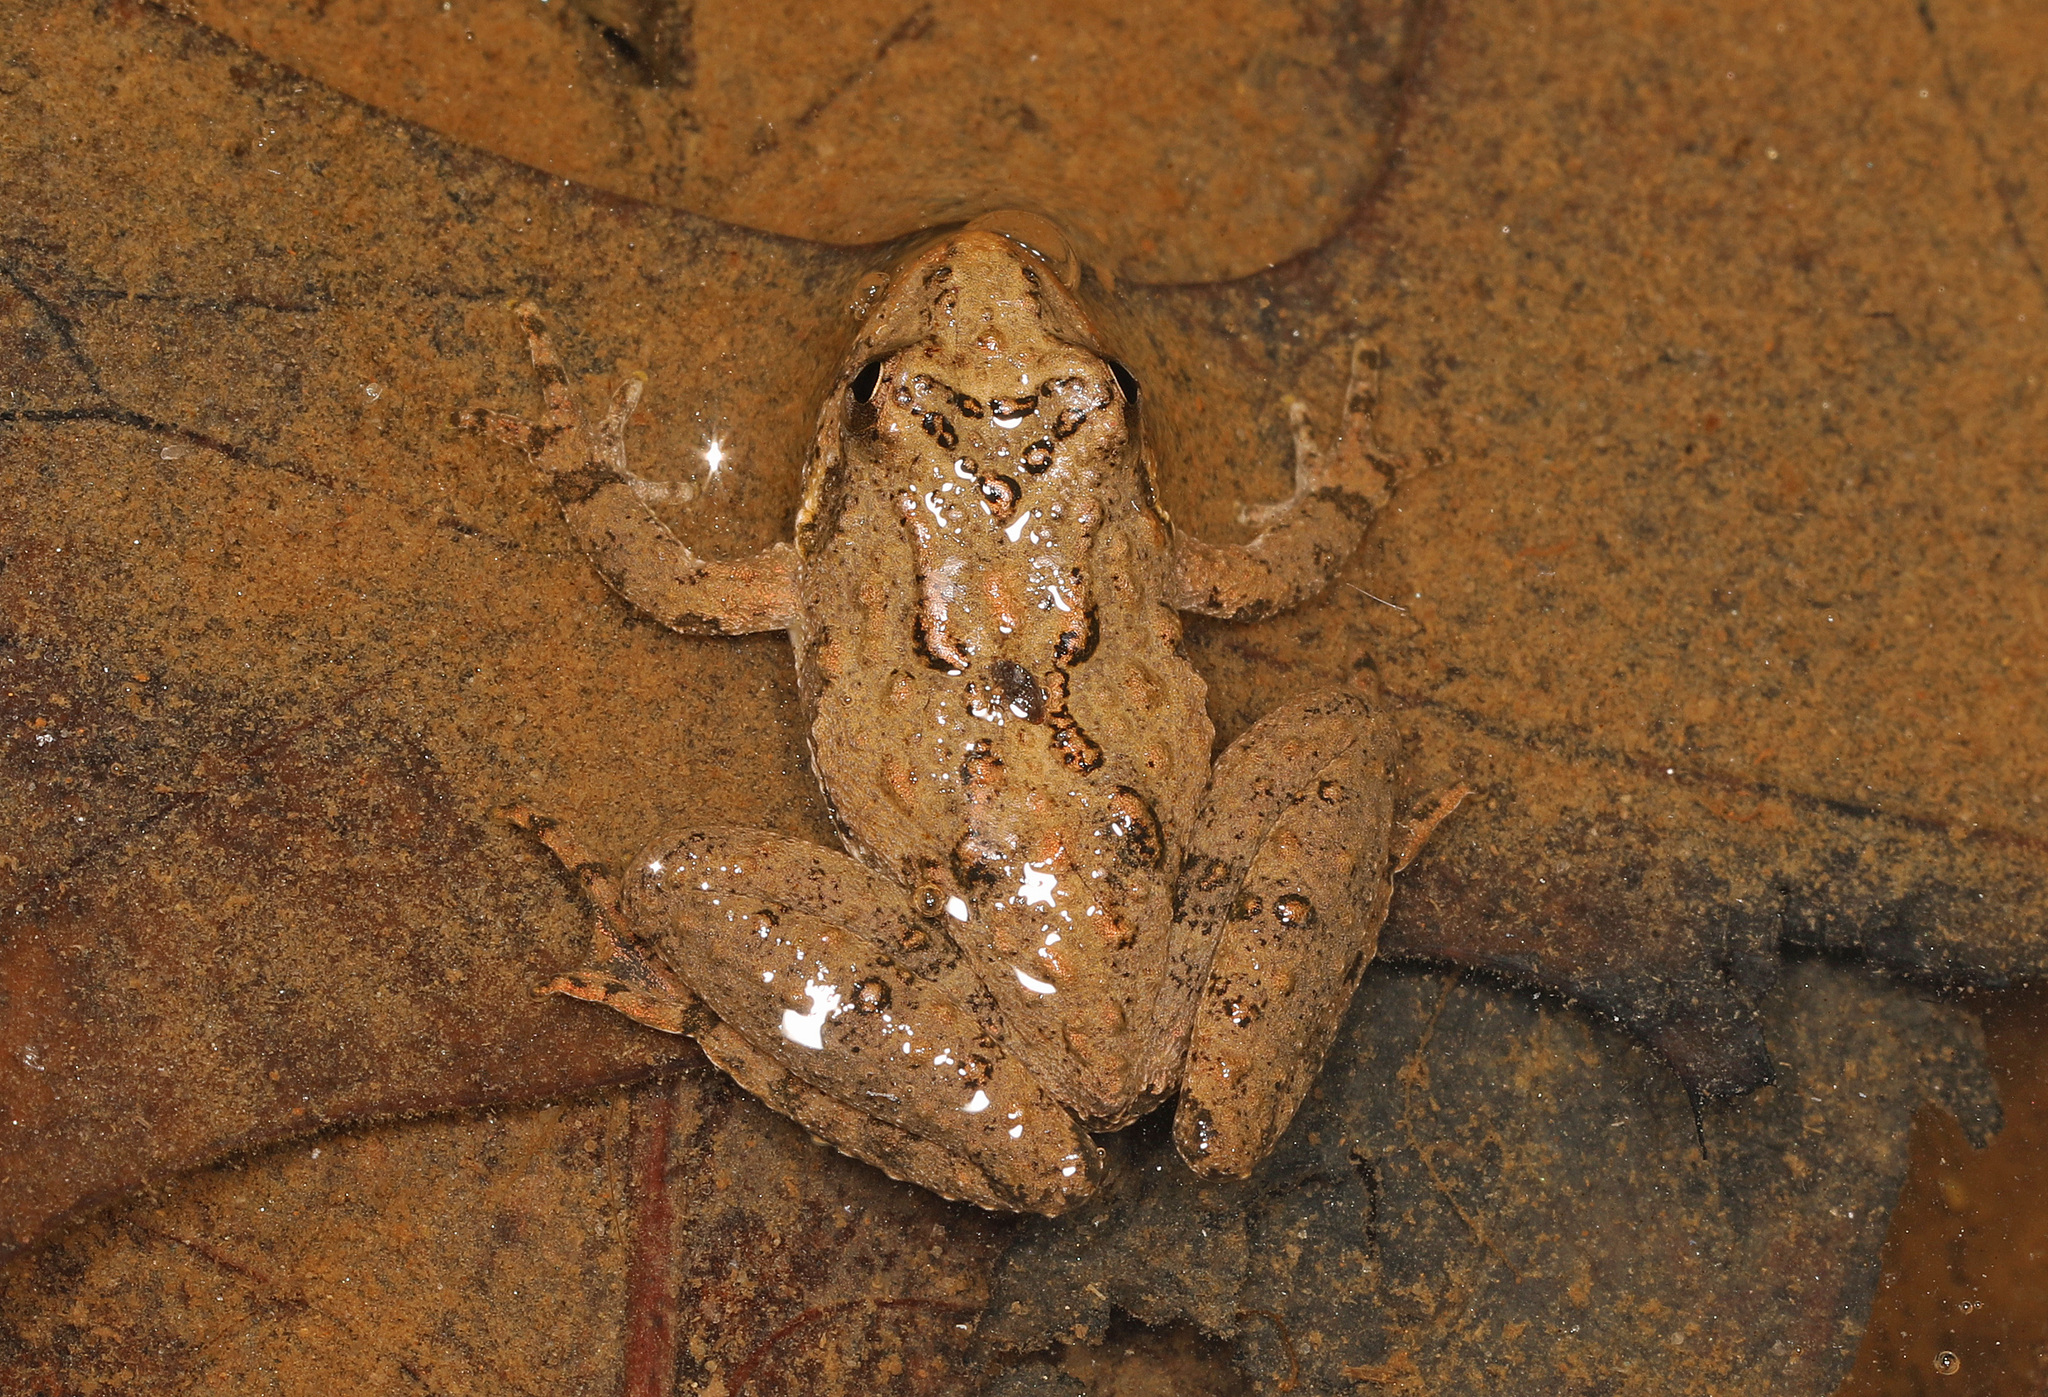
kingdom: Animalia
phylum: Chordata
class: Amphibia
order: Anura
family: Hylidae
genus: Acris
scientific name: Acris crepitans
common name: Northern cricket frog
